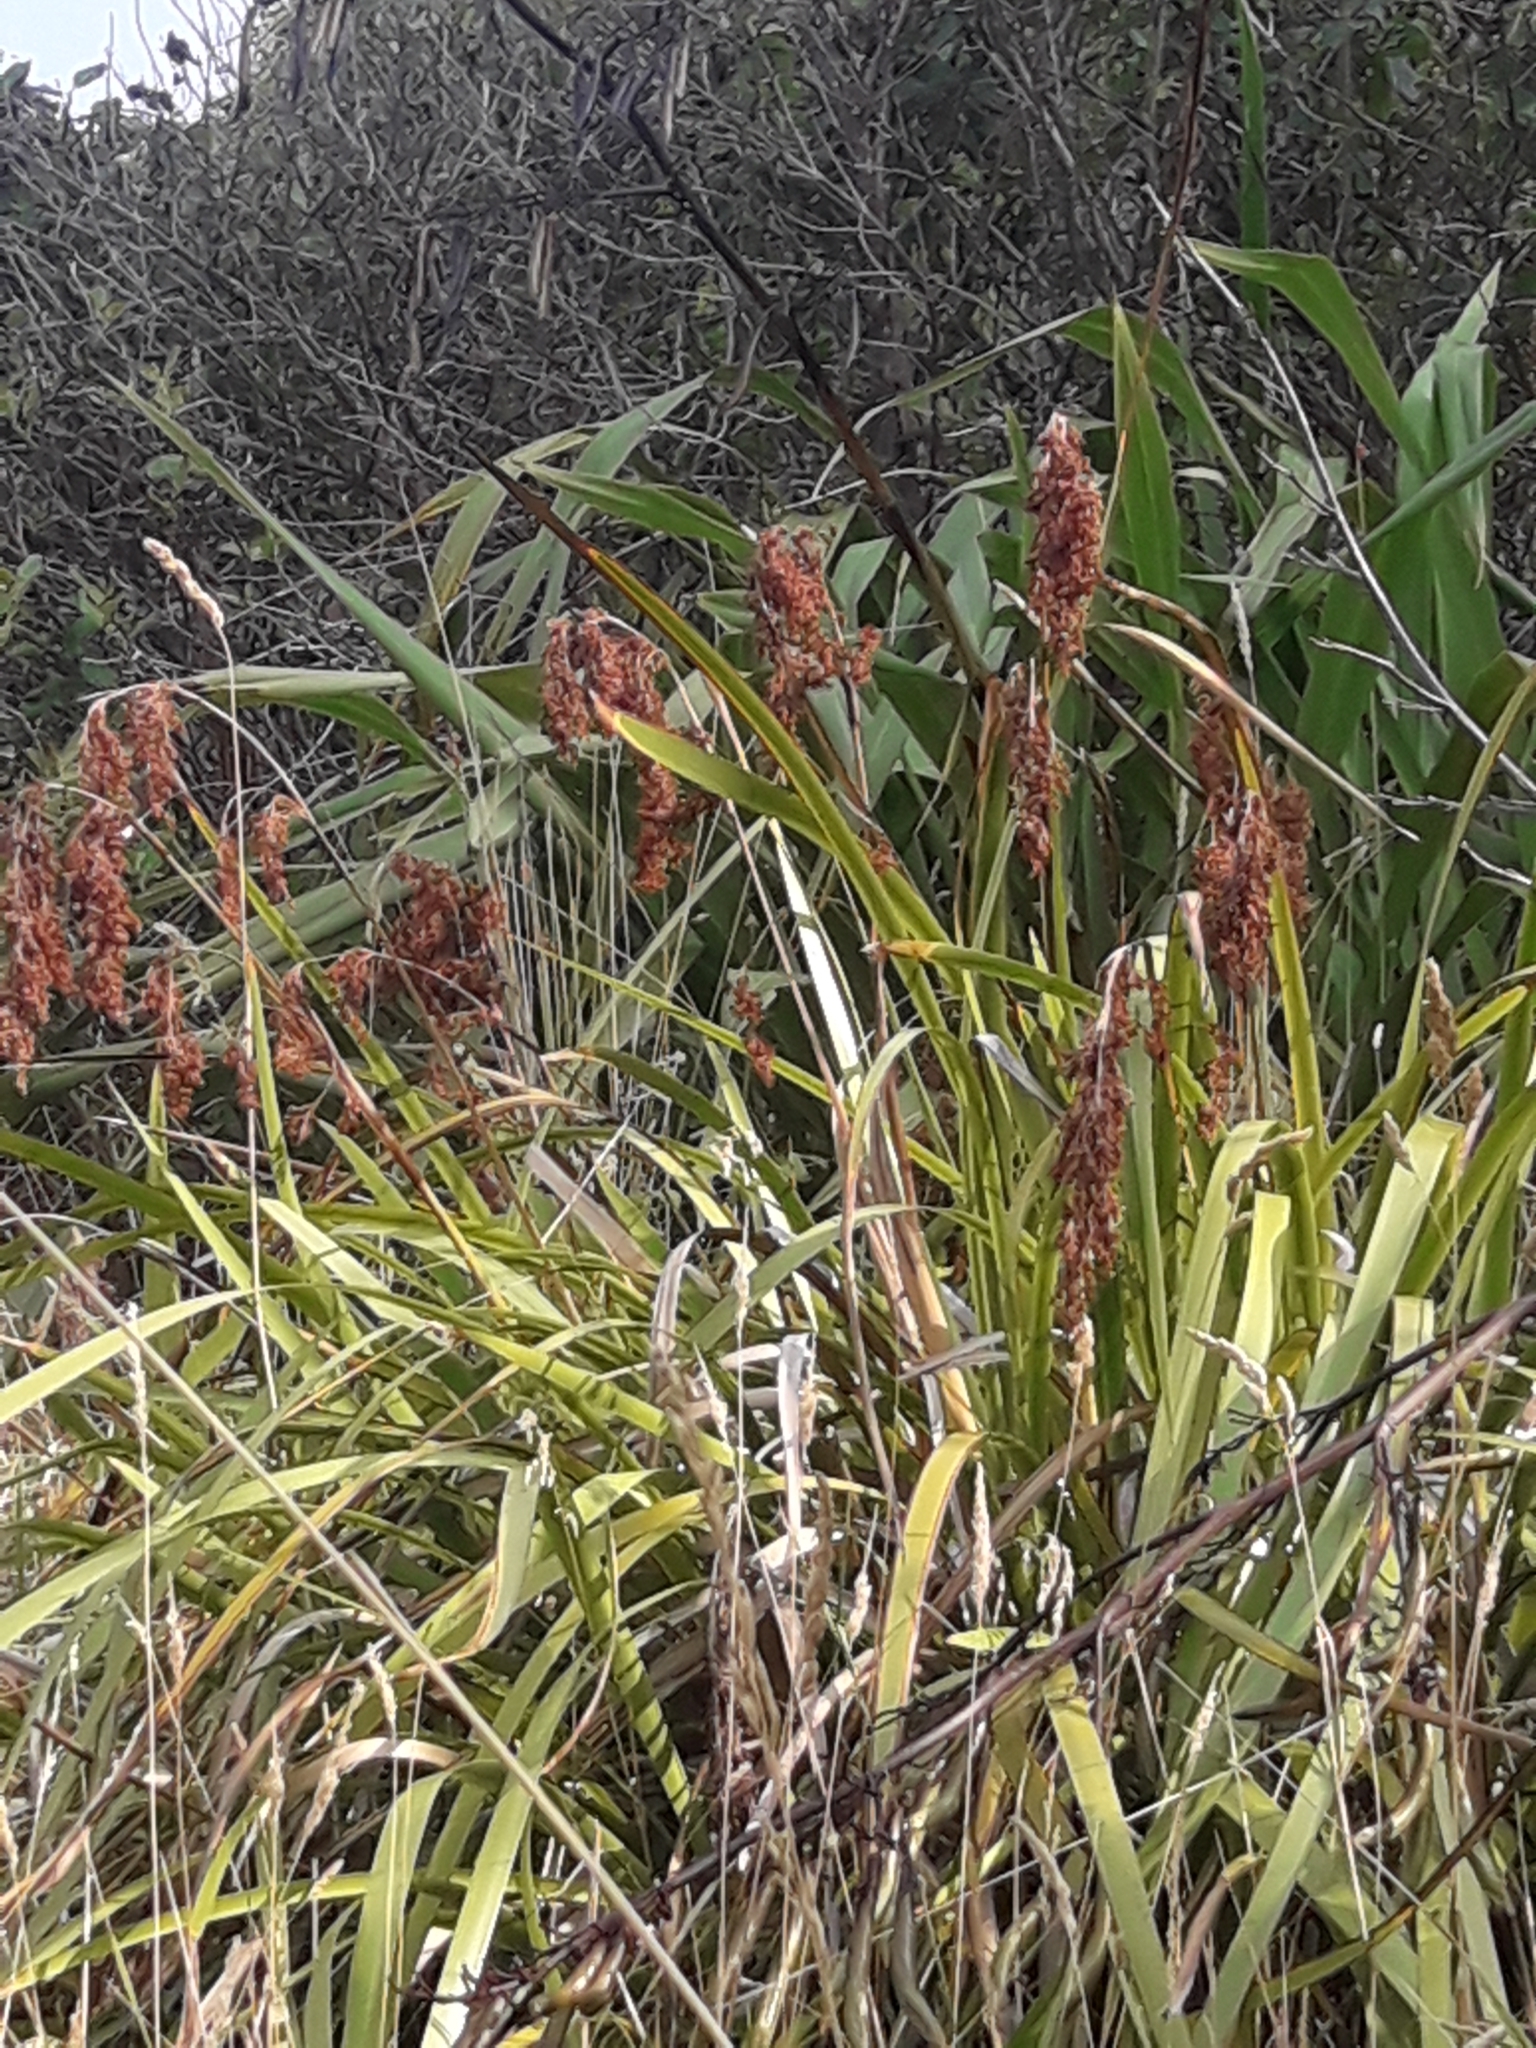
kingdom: Plantae
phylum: Tracheophyta
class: Liliopsida
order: Poales
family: Cyperaceae
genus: Machaerina
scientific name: Machaerina sinclairii
